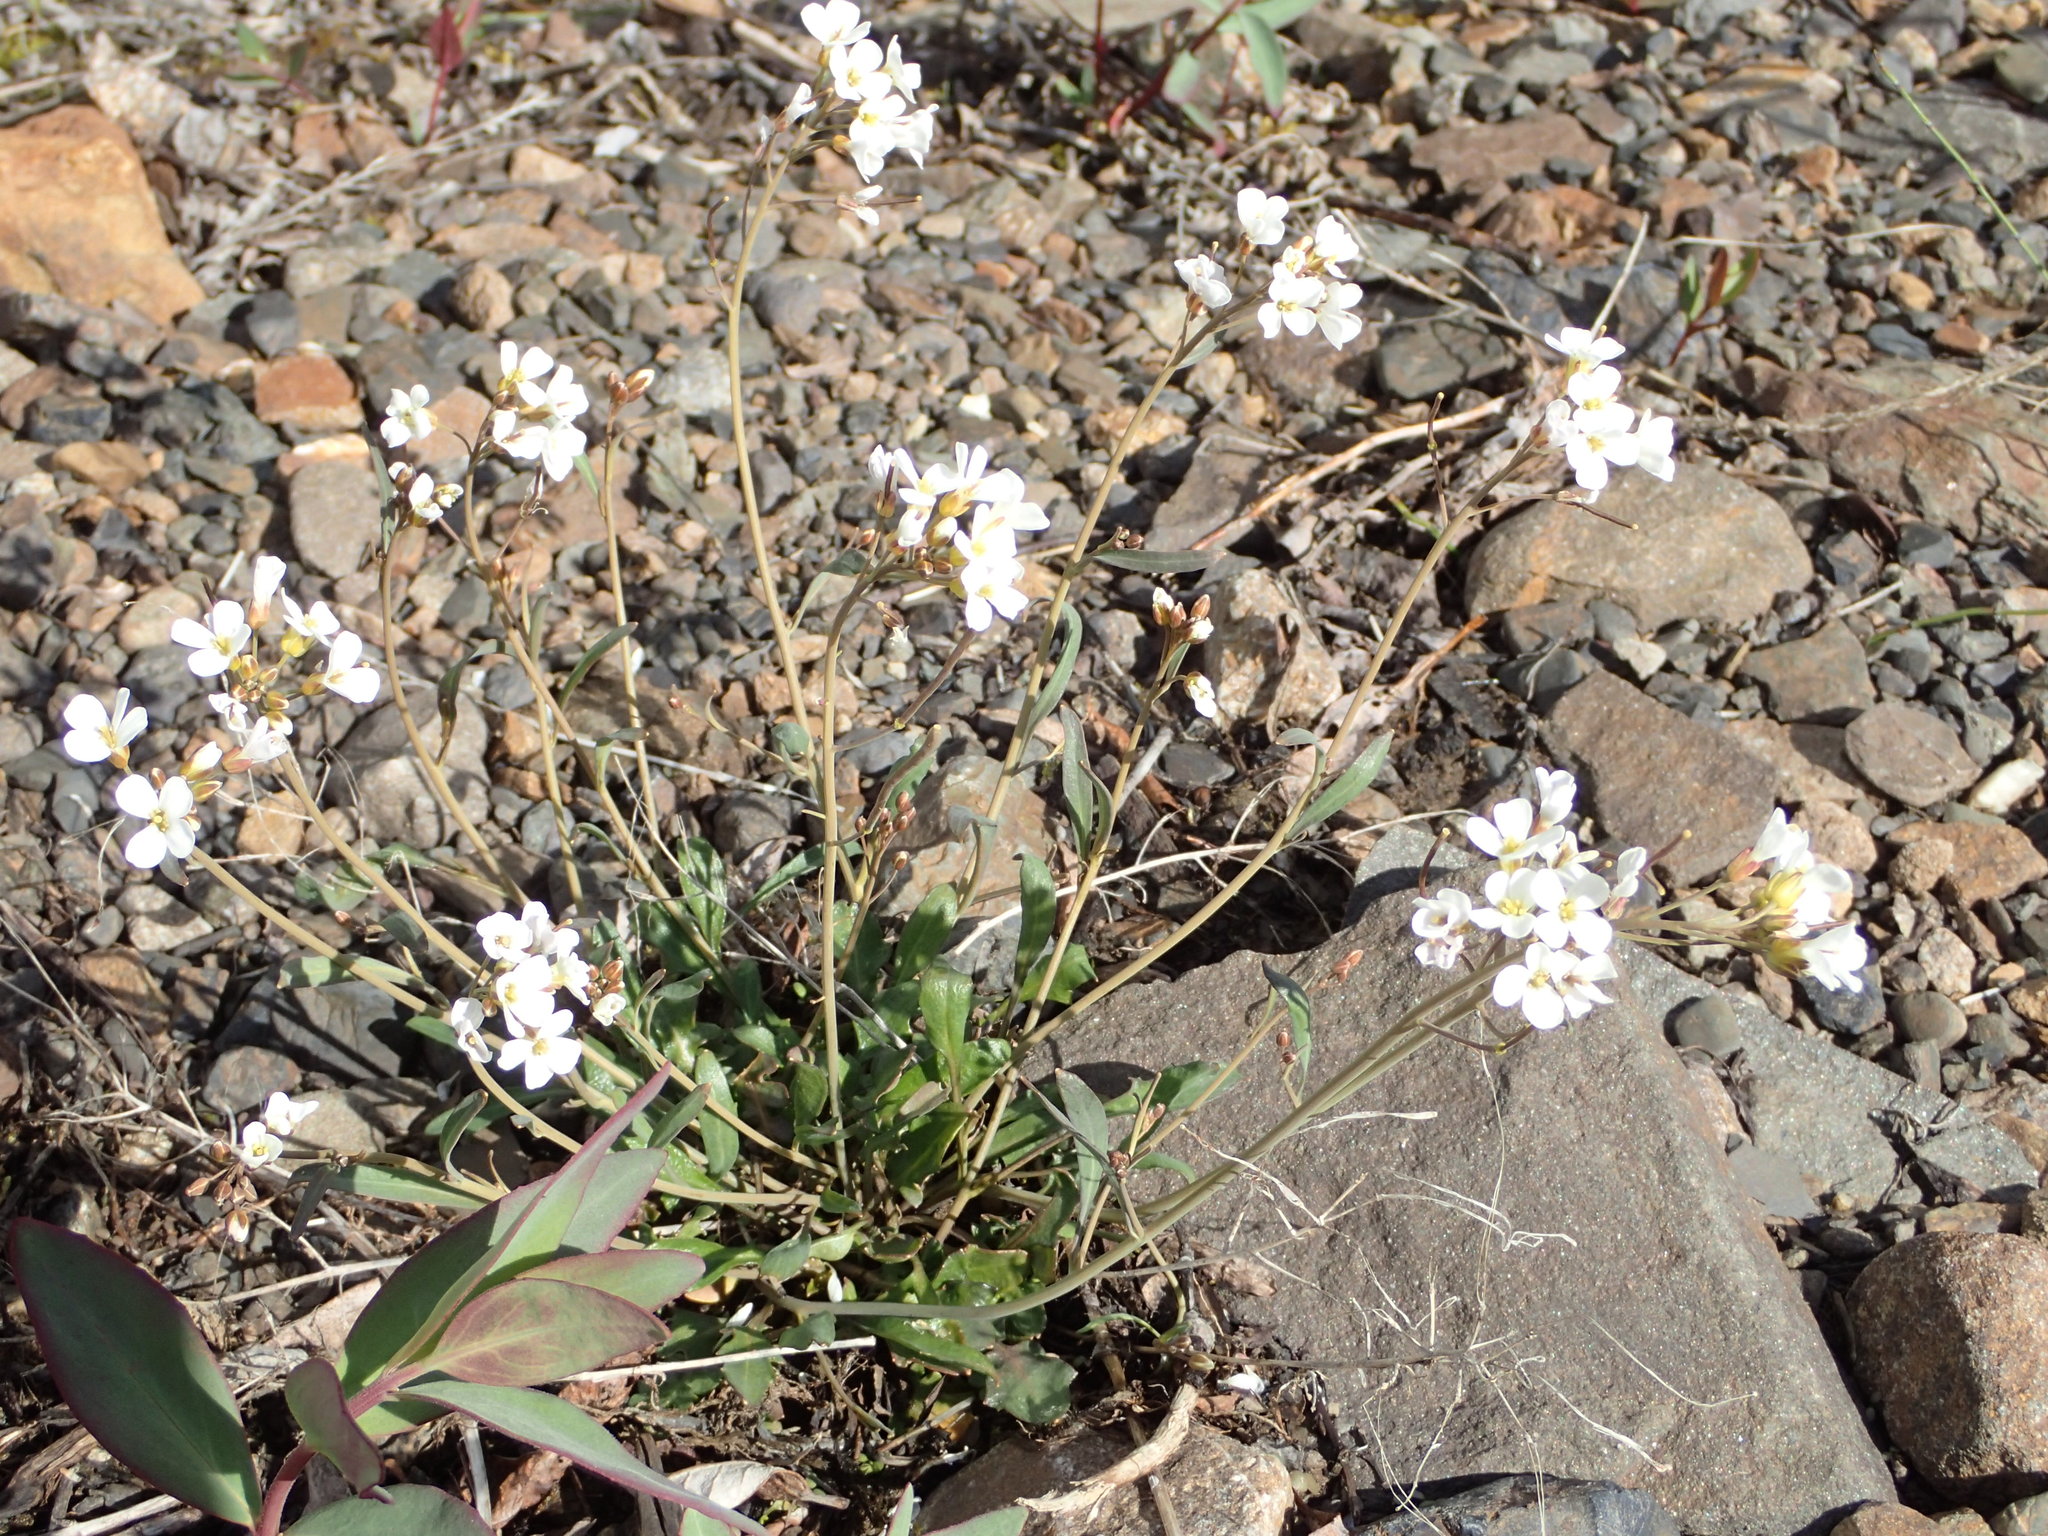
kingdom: Plantae
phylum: Tracheophyta
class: Magnoliopsida
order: Brassicales
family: Brassicaceae
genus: Arabidopsis
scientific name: Arabidopsis lyrata
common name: Lyrate rockcress
